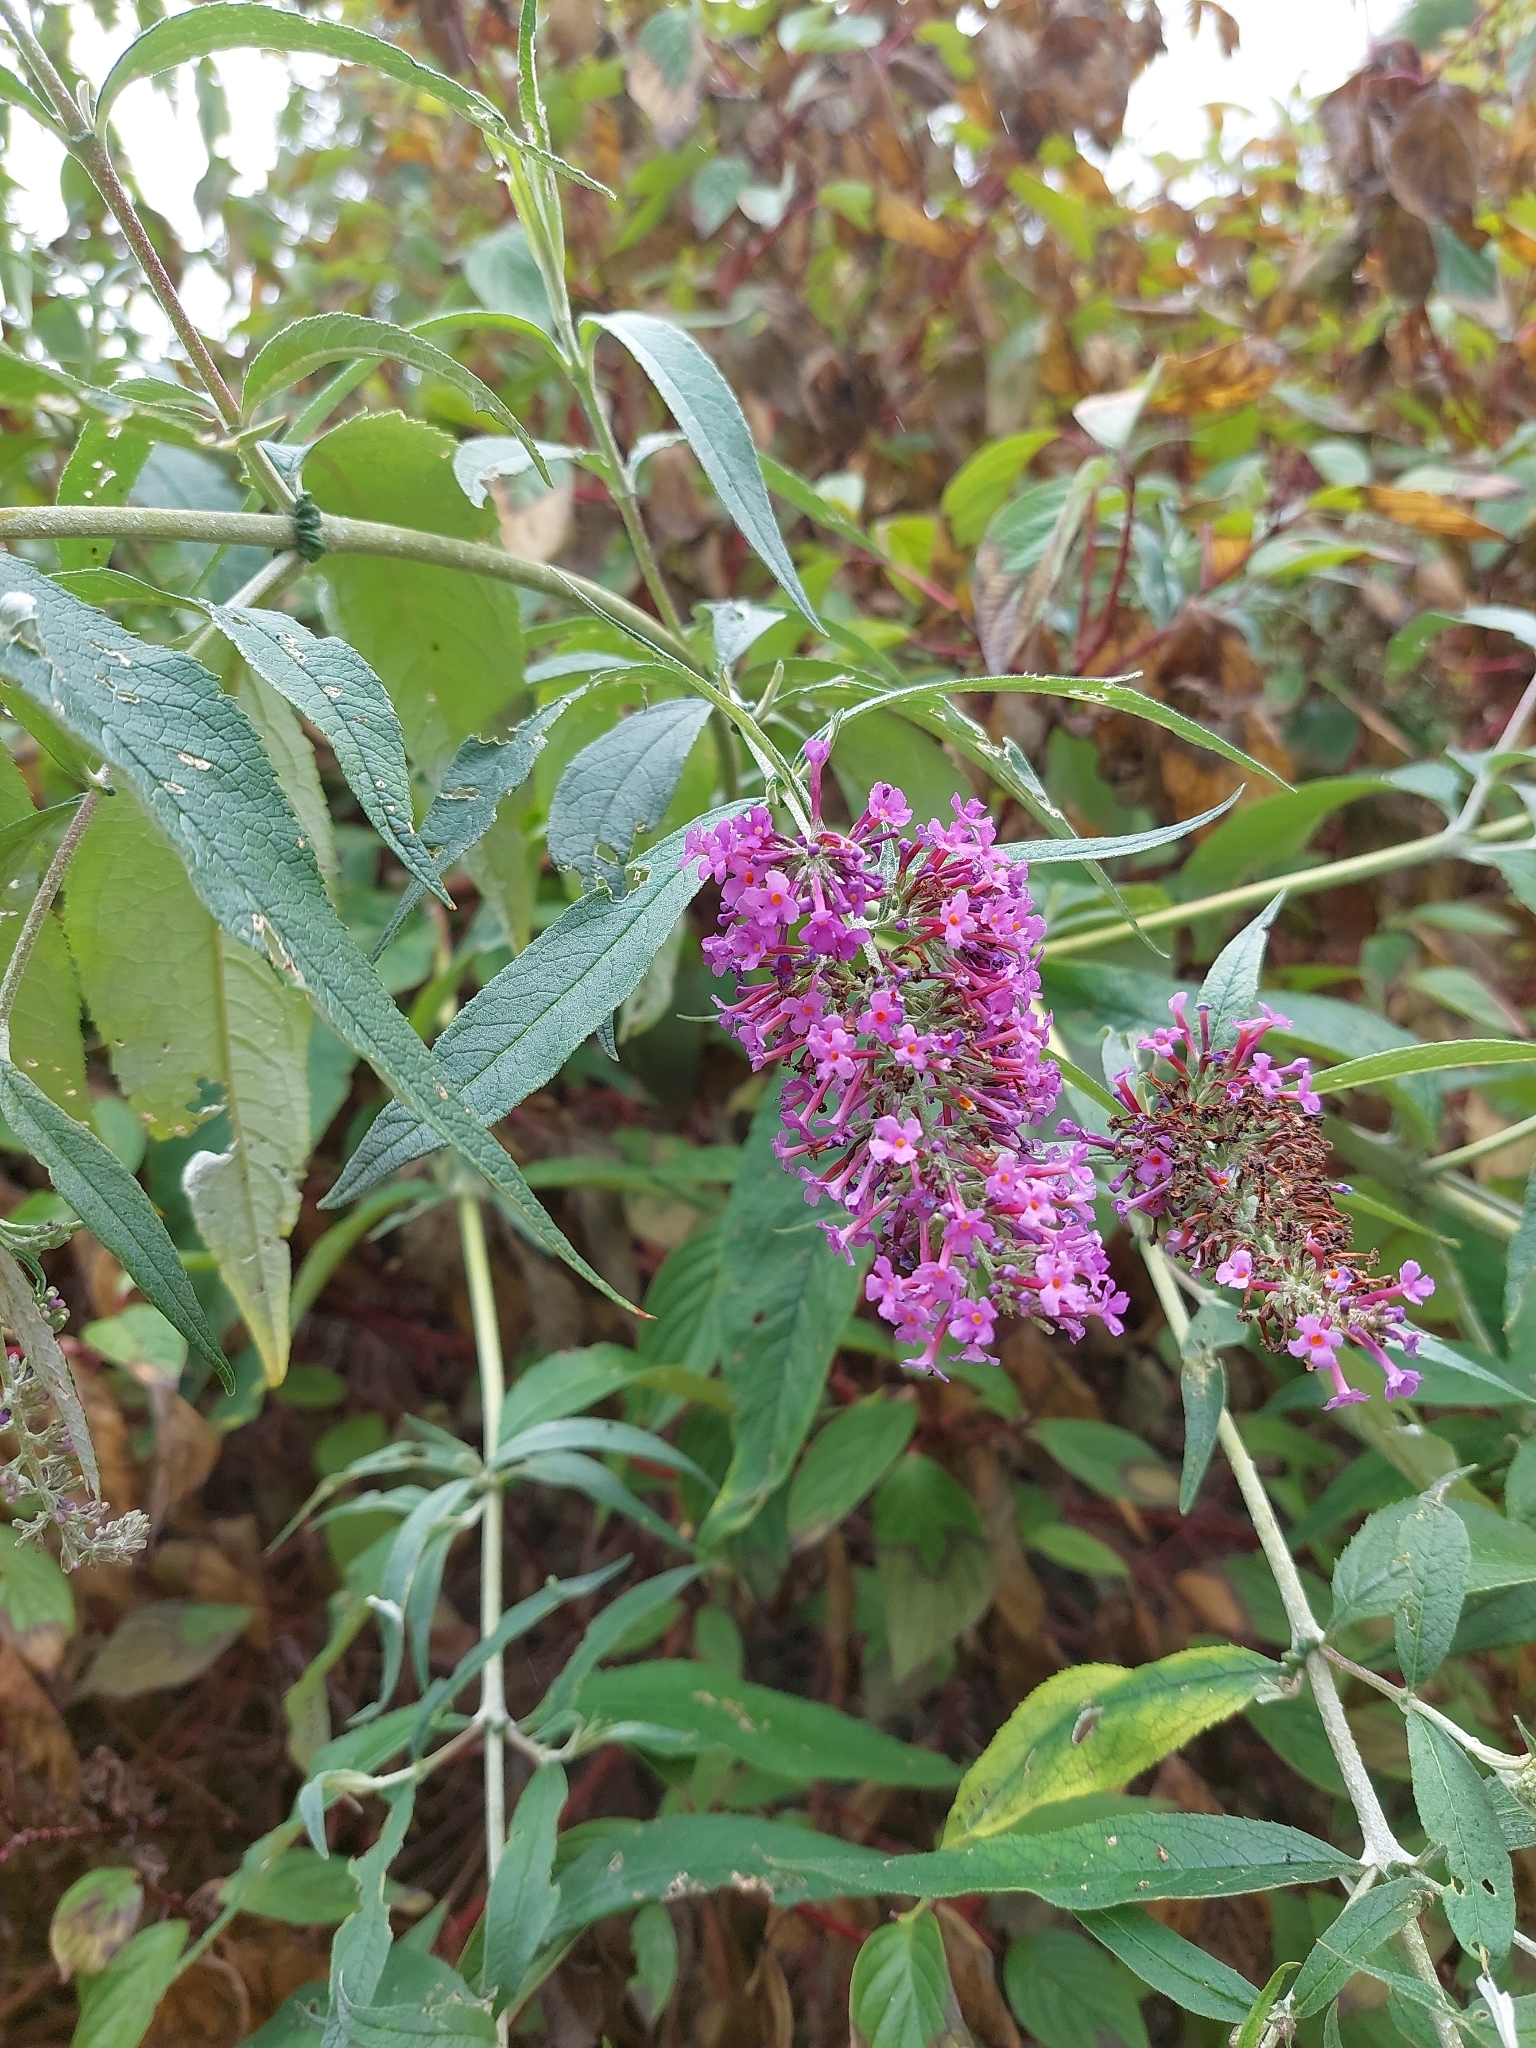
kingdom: Plantae
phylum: Tracheophyta
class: Magnoliopsida
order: Lamiales
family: Scrophulariaceae
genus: Buddleja
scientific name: Buddleja davidii
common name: Butterfly-bush
